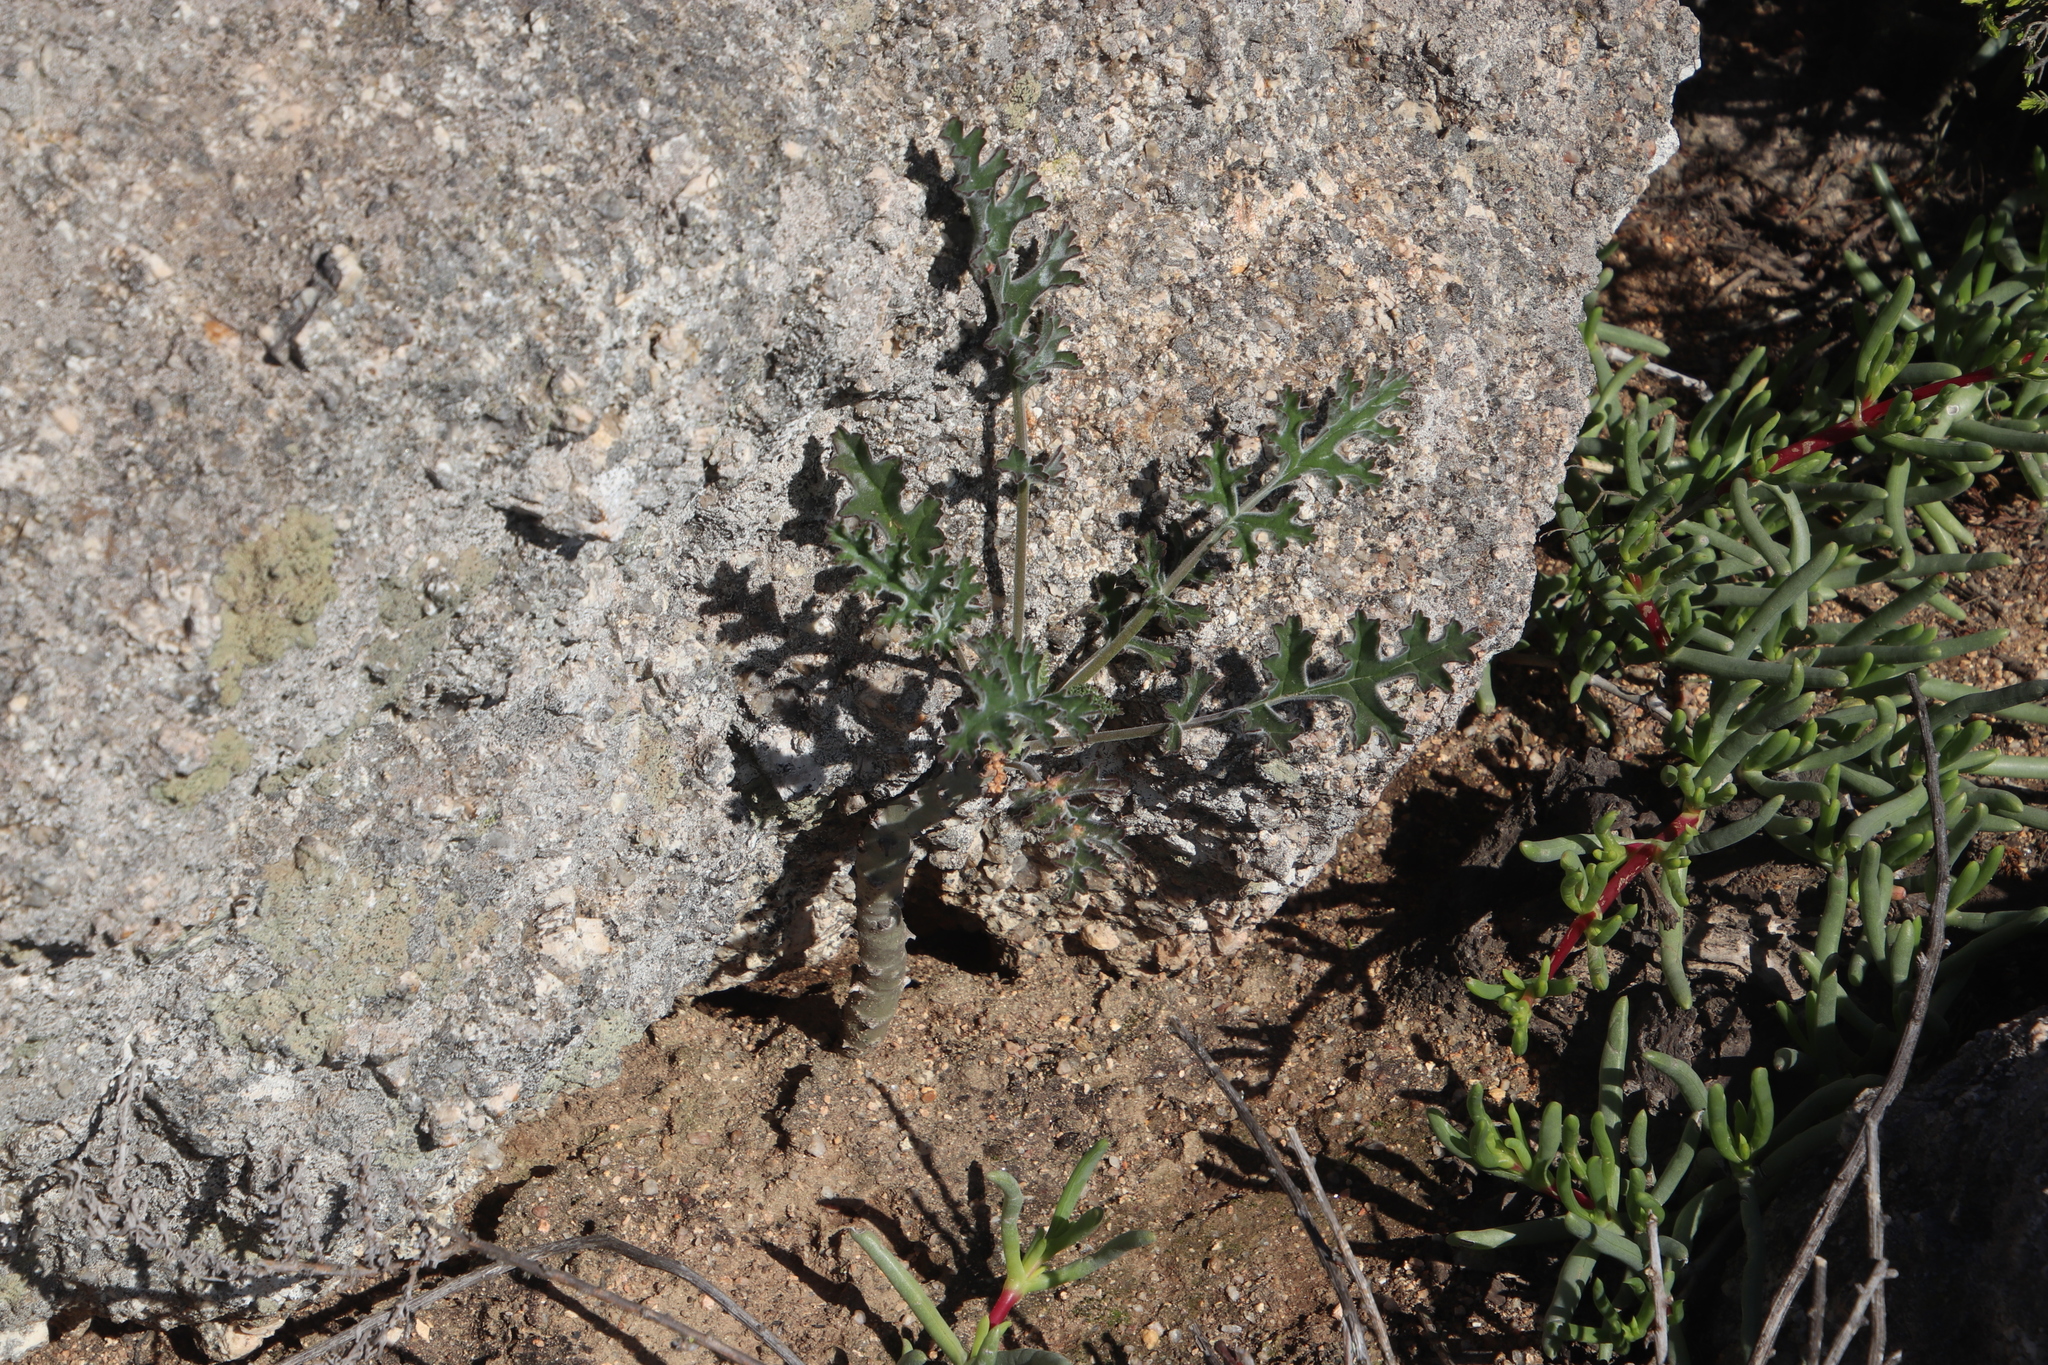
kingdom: Plantae
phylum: Tracheophyta
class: Magnoliopsida
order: Geraniales
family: Geraniaceae
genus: Pelargonium
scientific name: Pelargonium carnosum
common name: Fleshy-stalk pelargonium
